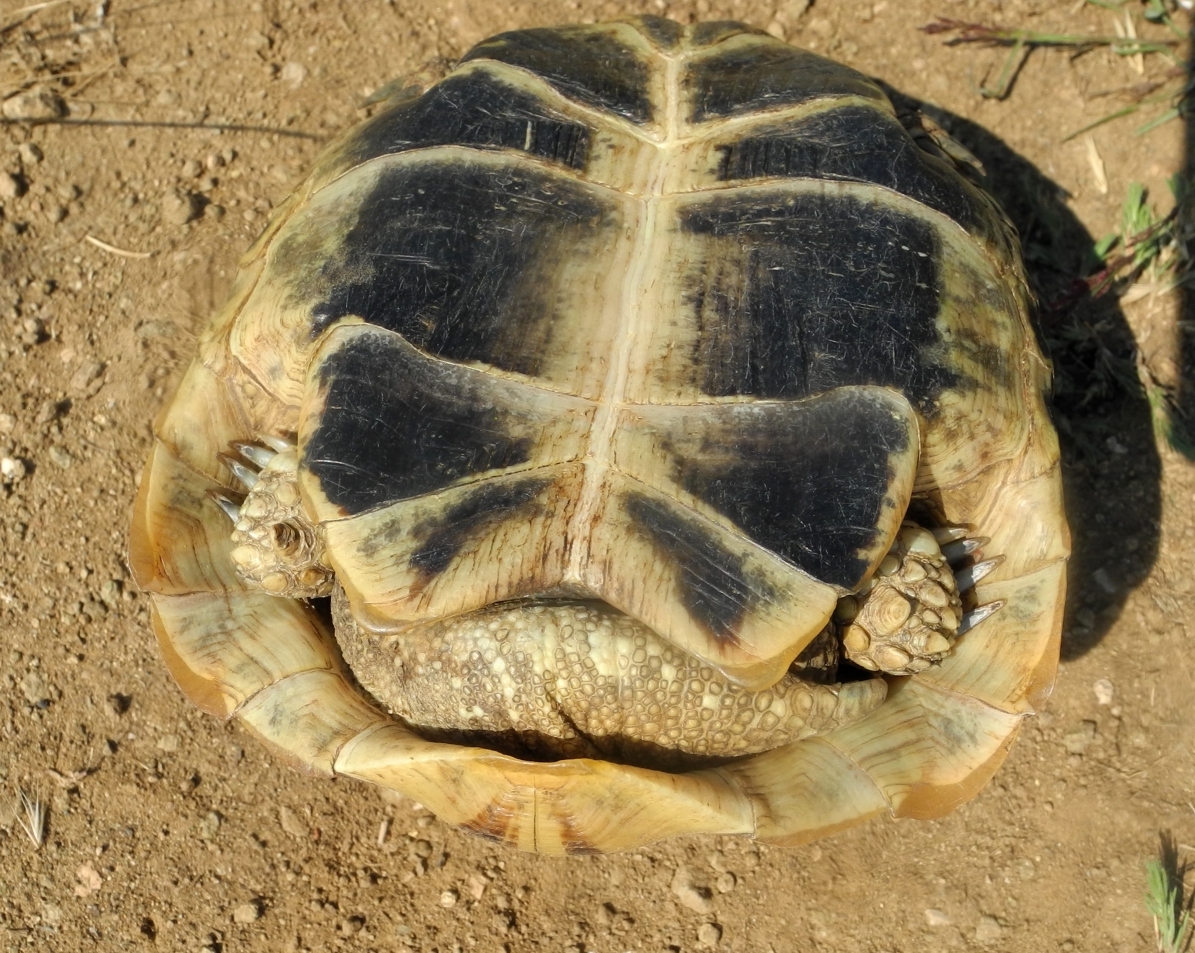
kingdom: Animalia
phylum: Chordata
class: Testudines
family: Testudinidae
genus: Testudo
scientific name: Testudo hermanni
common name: Hermann's tortoise
